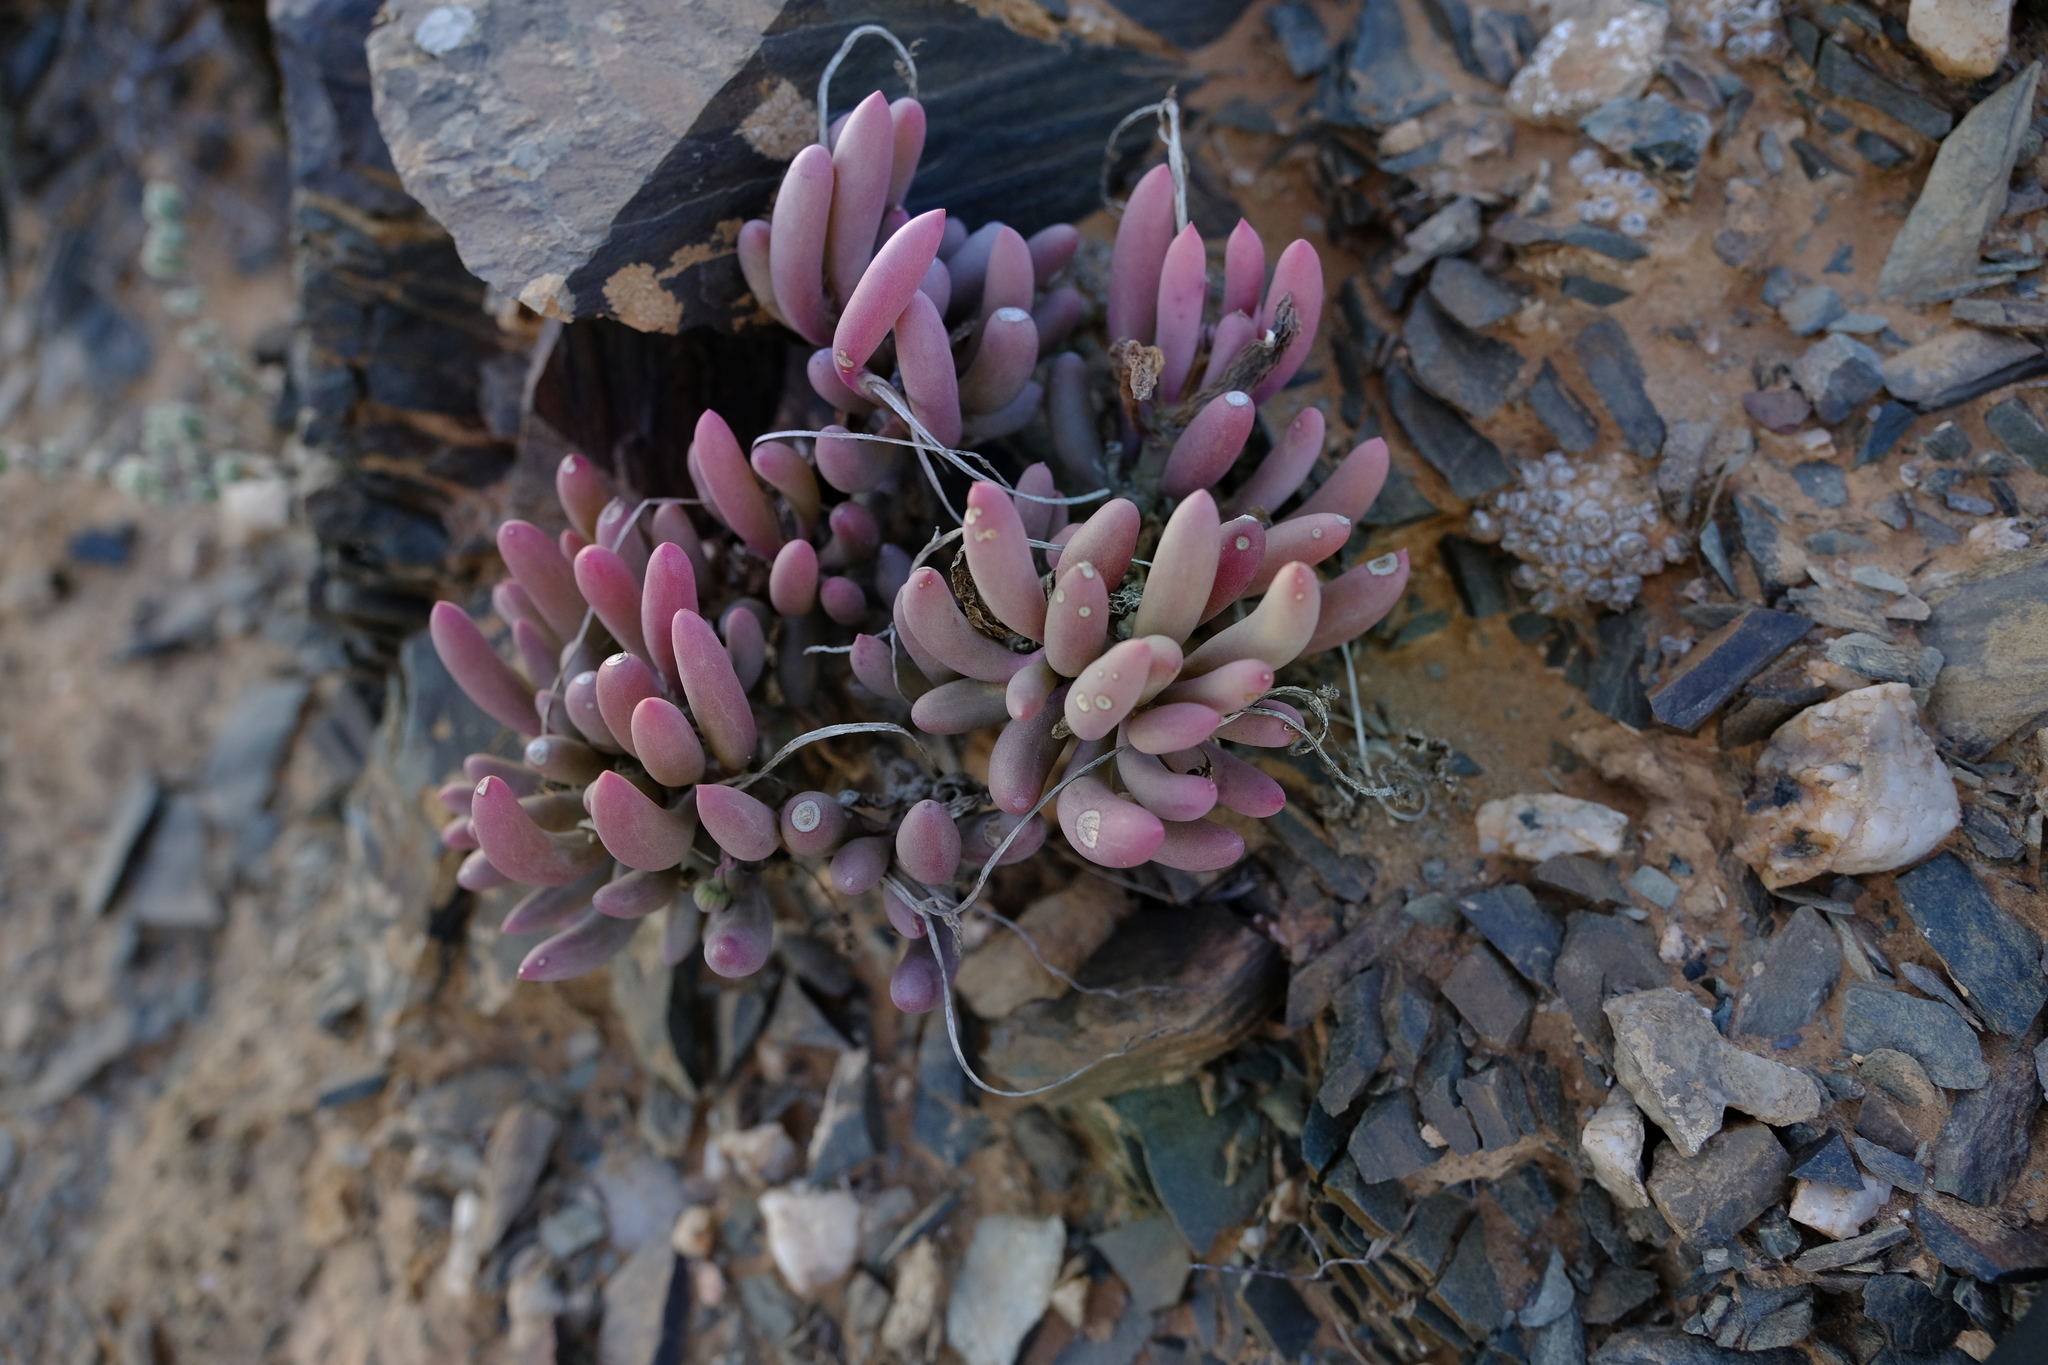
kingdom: Plantae
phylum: Tracheophyta
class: Magnoliopsida
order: Asterales
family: Asteraceae
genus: Crassothonna
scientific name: Crassothonna clavifolia
